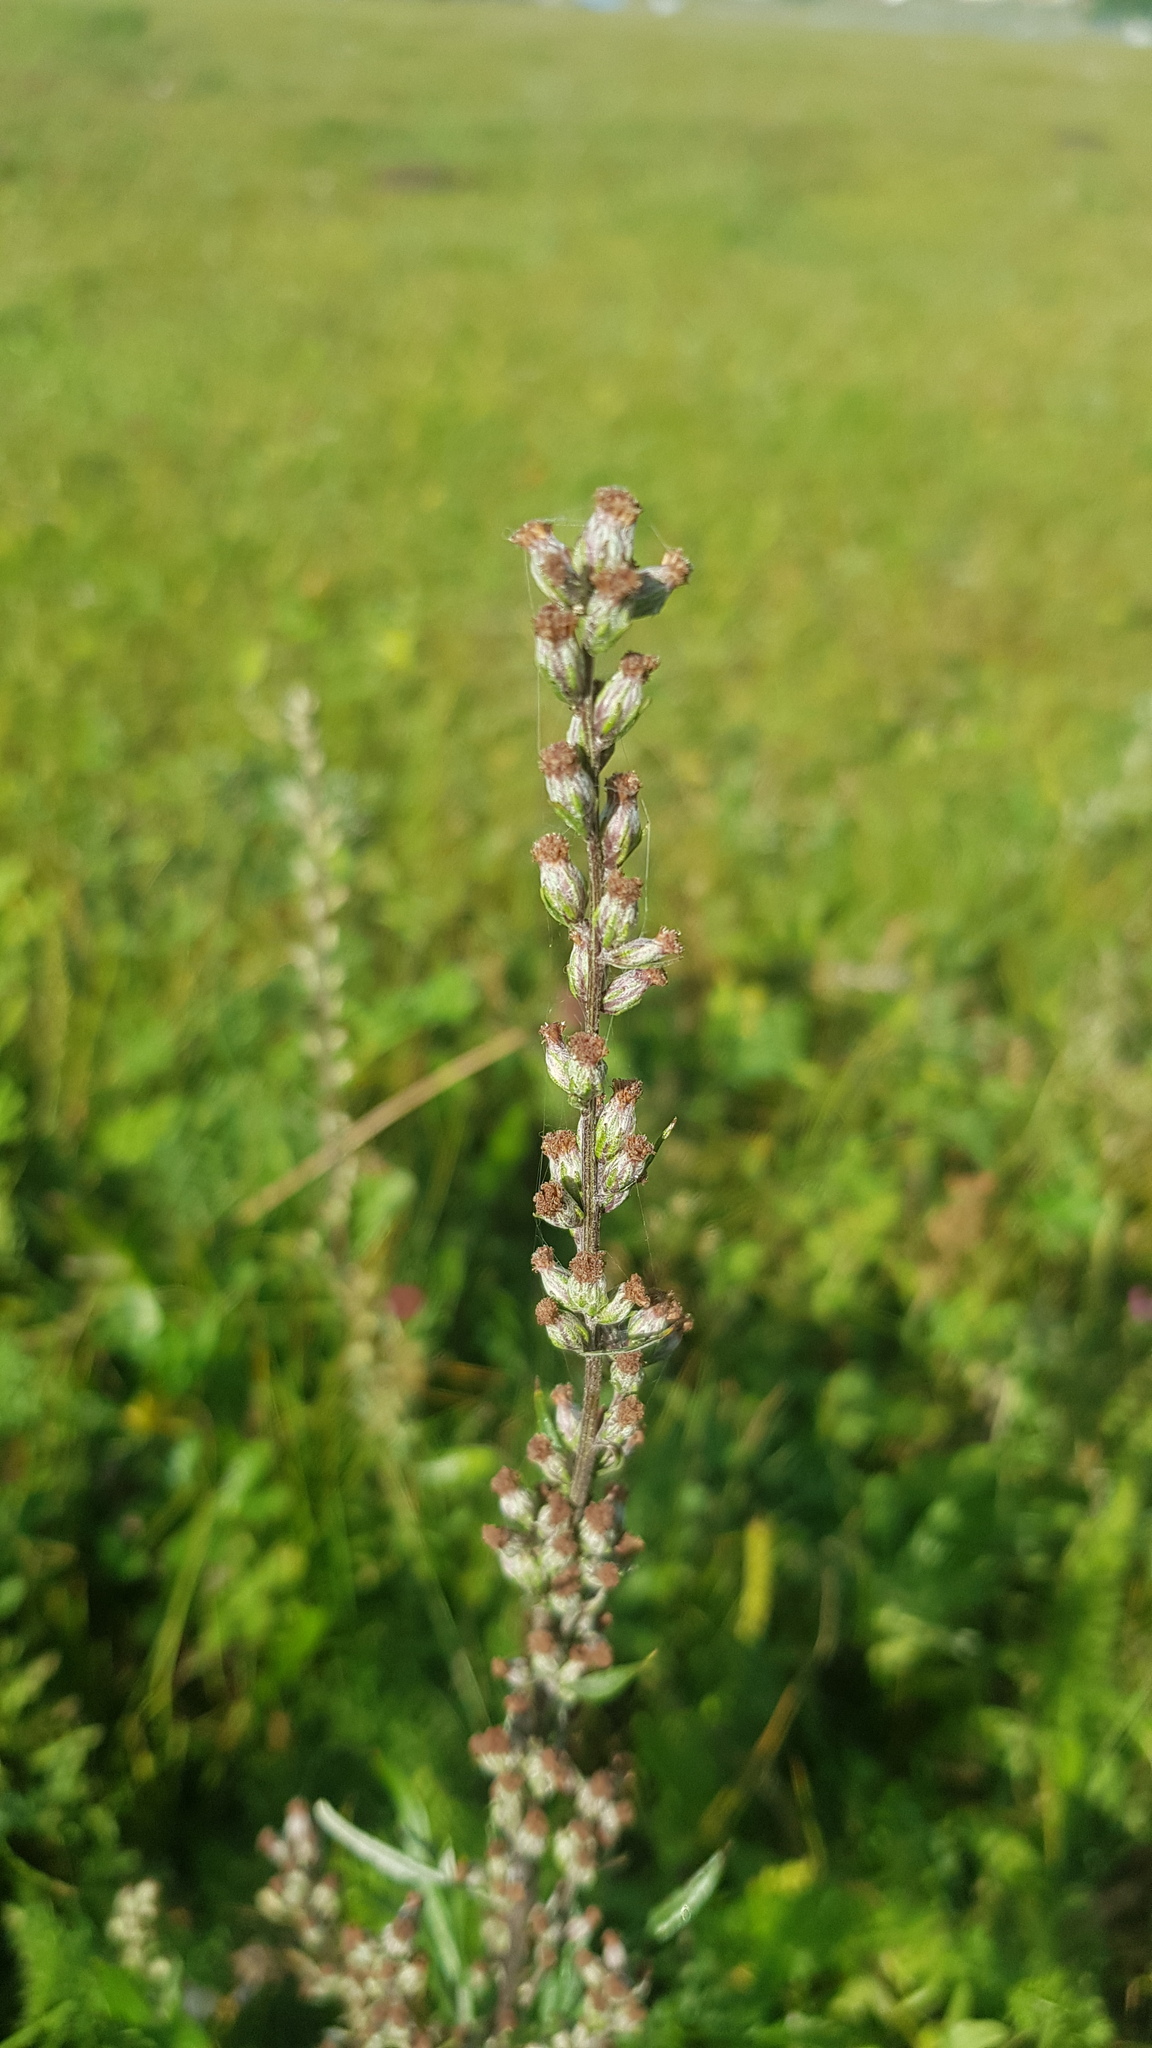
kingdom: Plantae
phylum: Tracheophyta
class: Magnoliopsida
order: Asterales
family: Asteraceae
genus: Artemisia
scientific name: Artemisia vulgaris
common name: Mugwort
